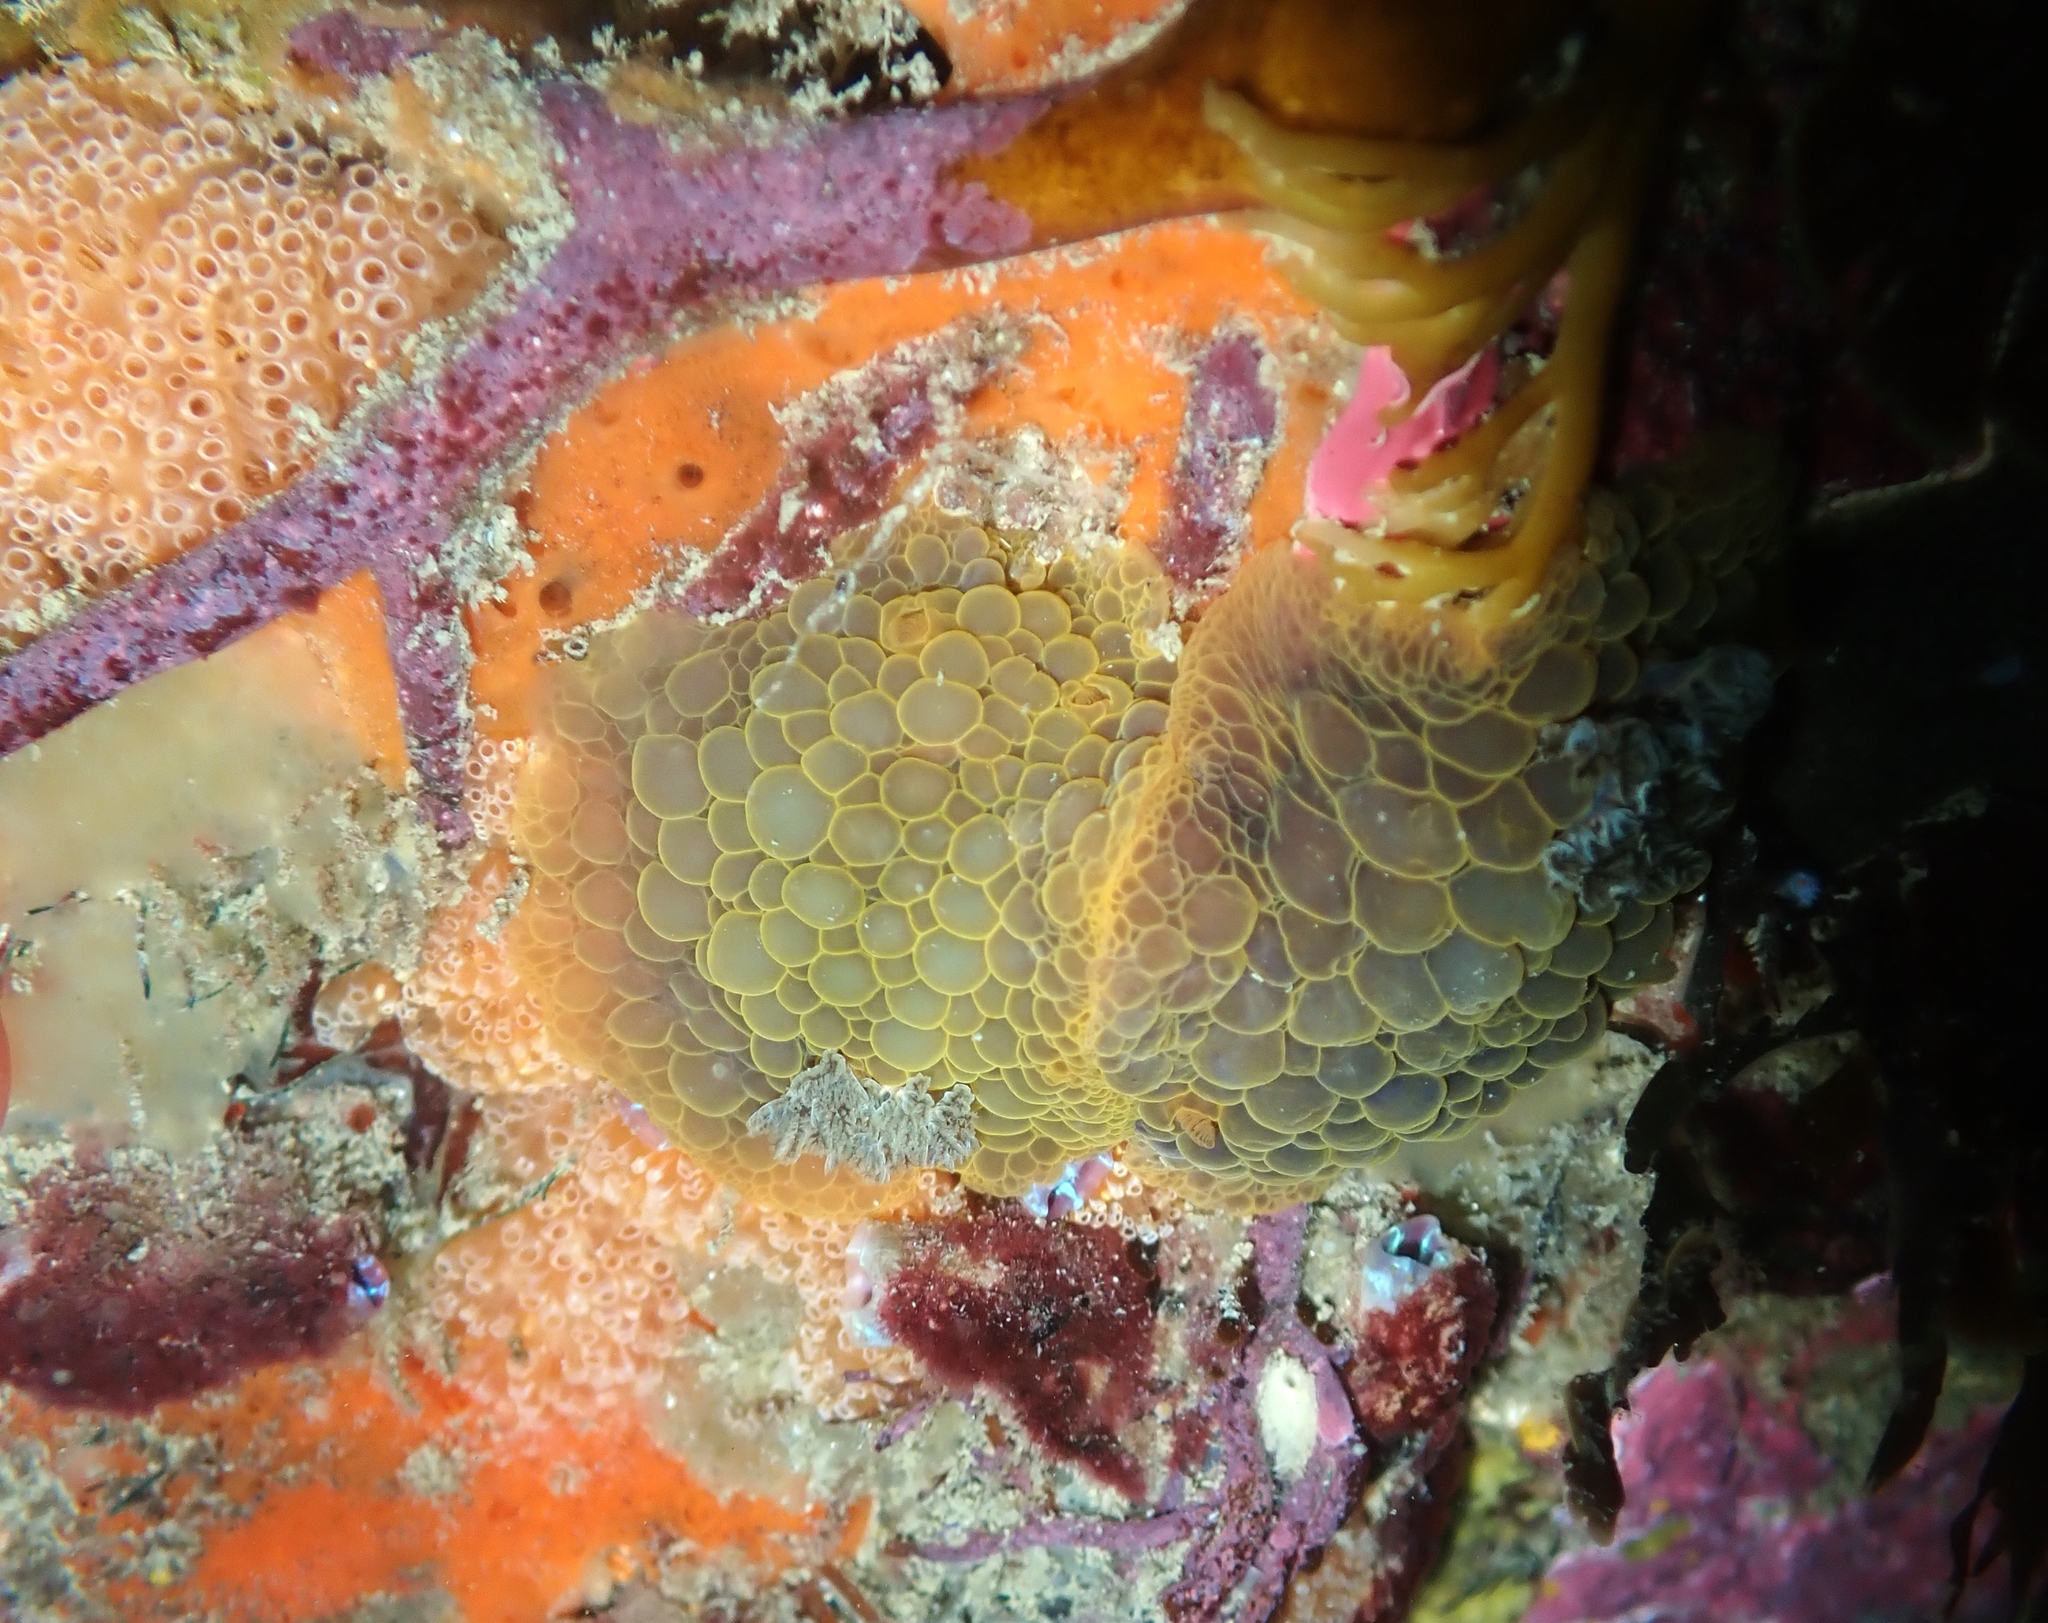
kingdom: Animalia
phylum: Mollusca
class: Gastropoda
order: Nudibranchia
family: Dorididae
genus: Doris
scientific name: Doris wellingtonensis
